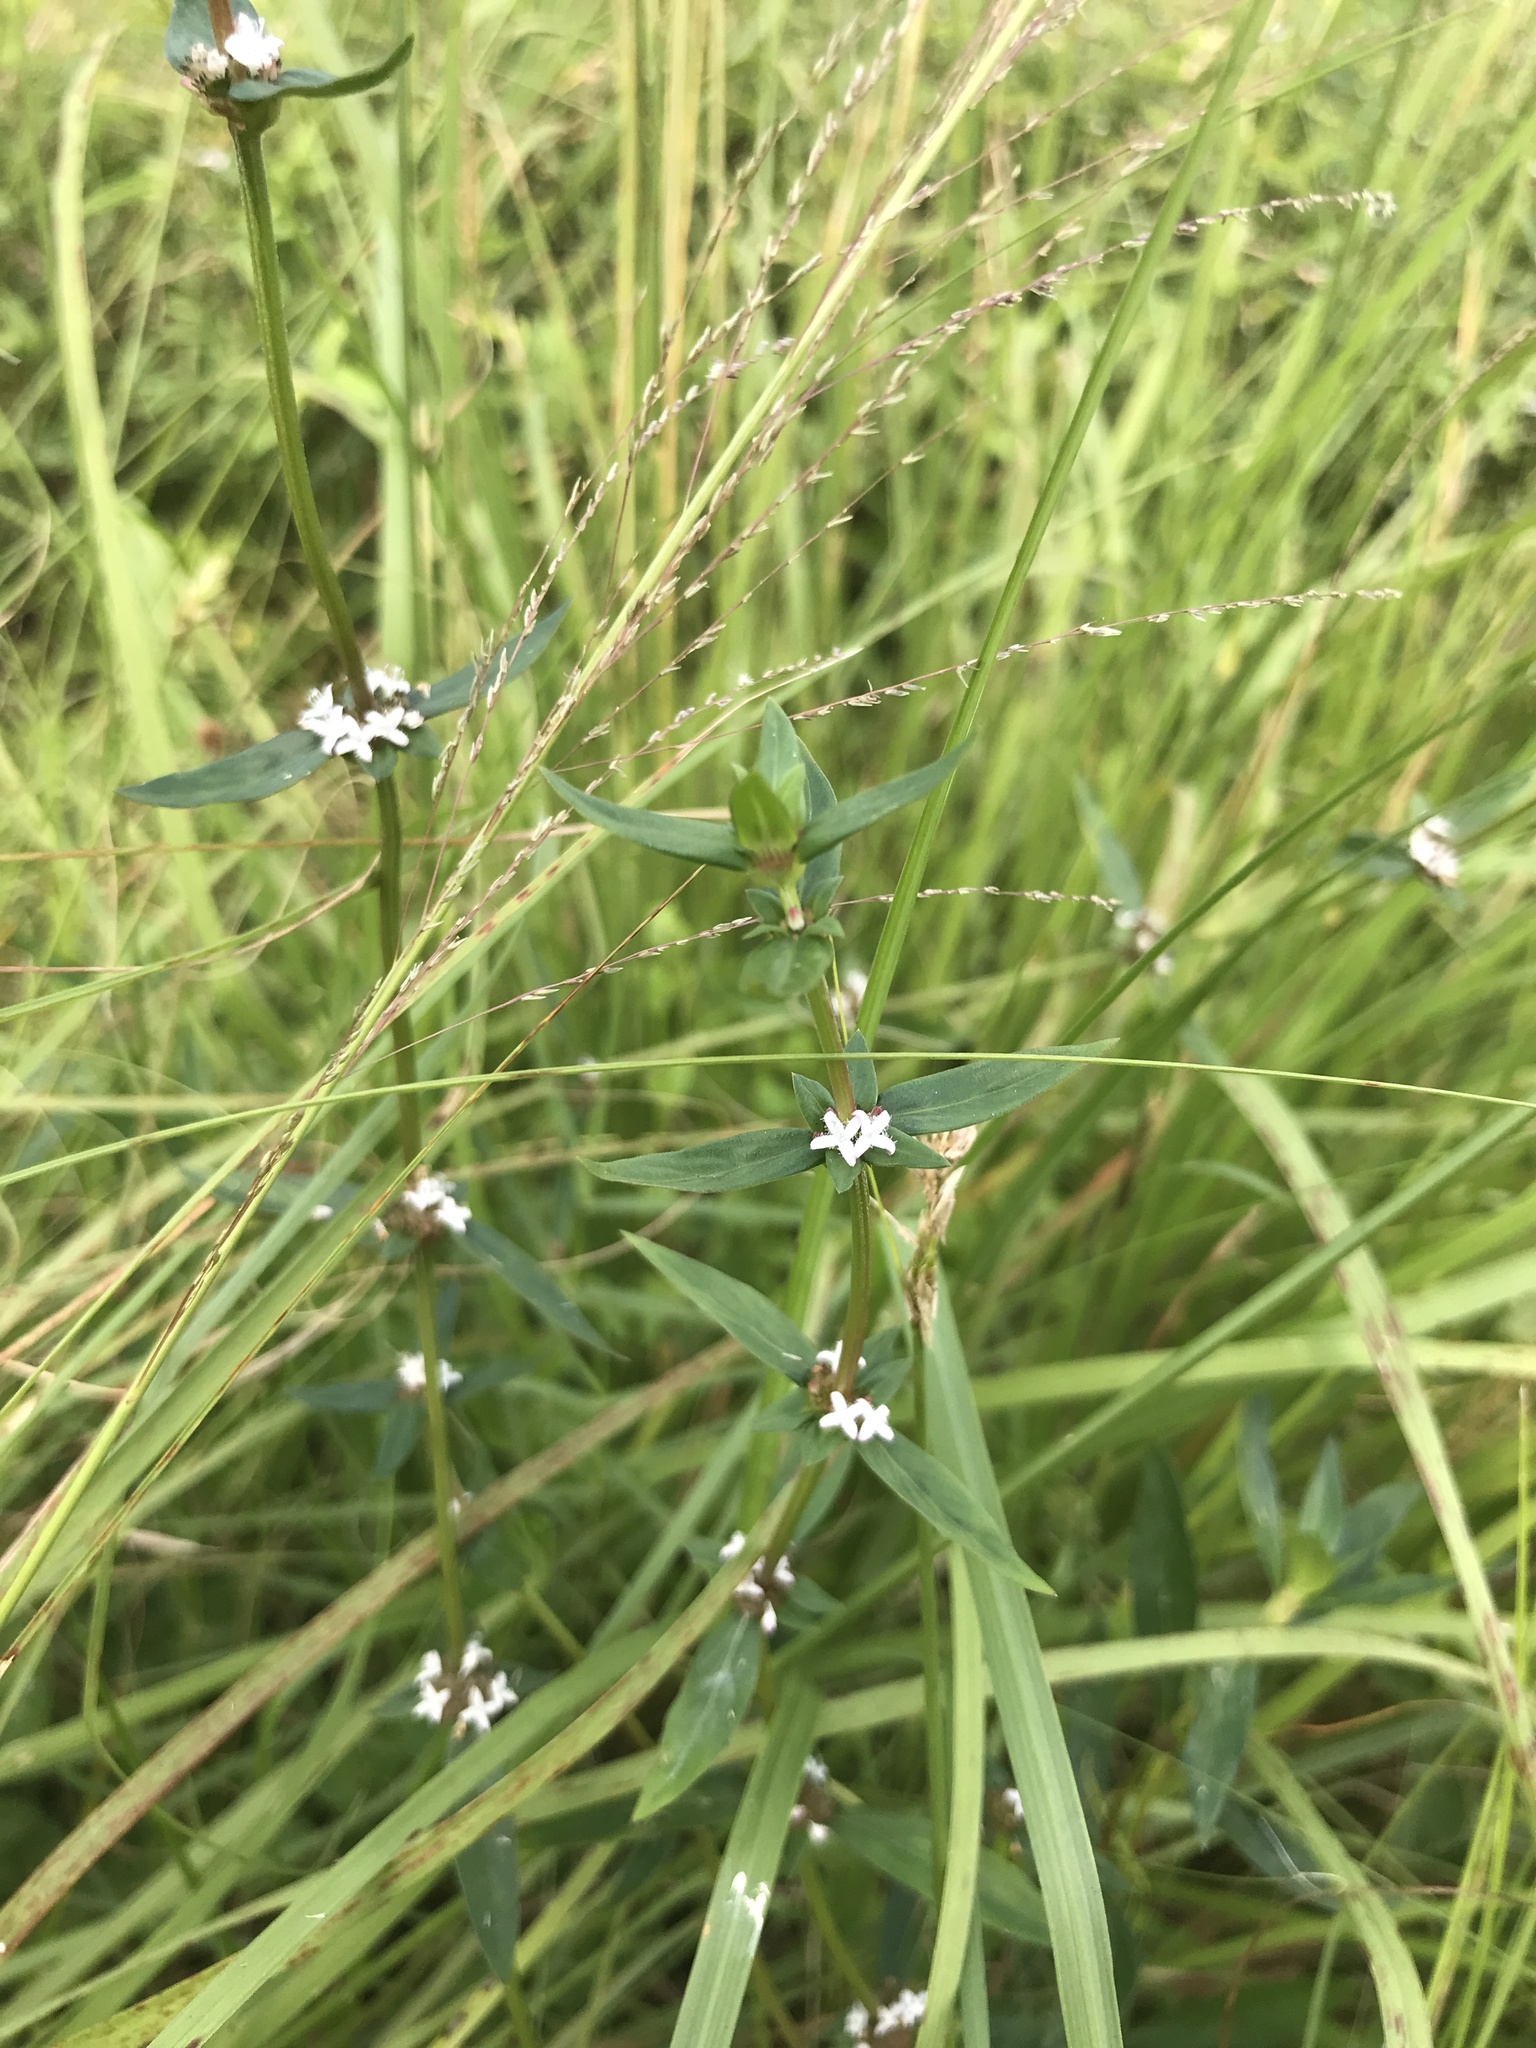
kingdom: Plantae
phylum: Tracheophyta
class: Magnoliopsida
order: Gentianales
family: Rubiaceae
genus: Spermacoce
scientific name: Spermacoce remota
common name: Woodland false buttonweed
